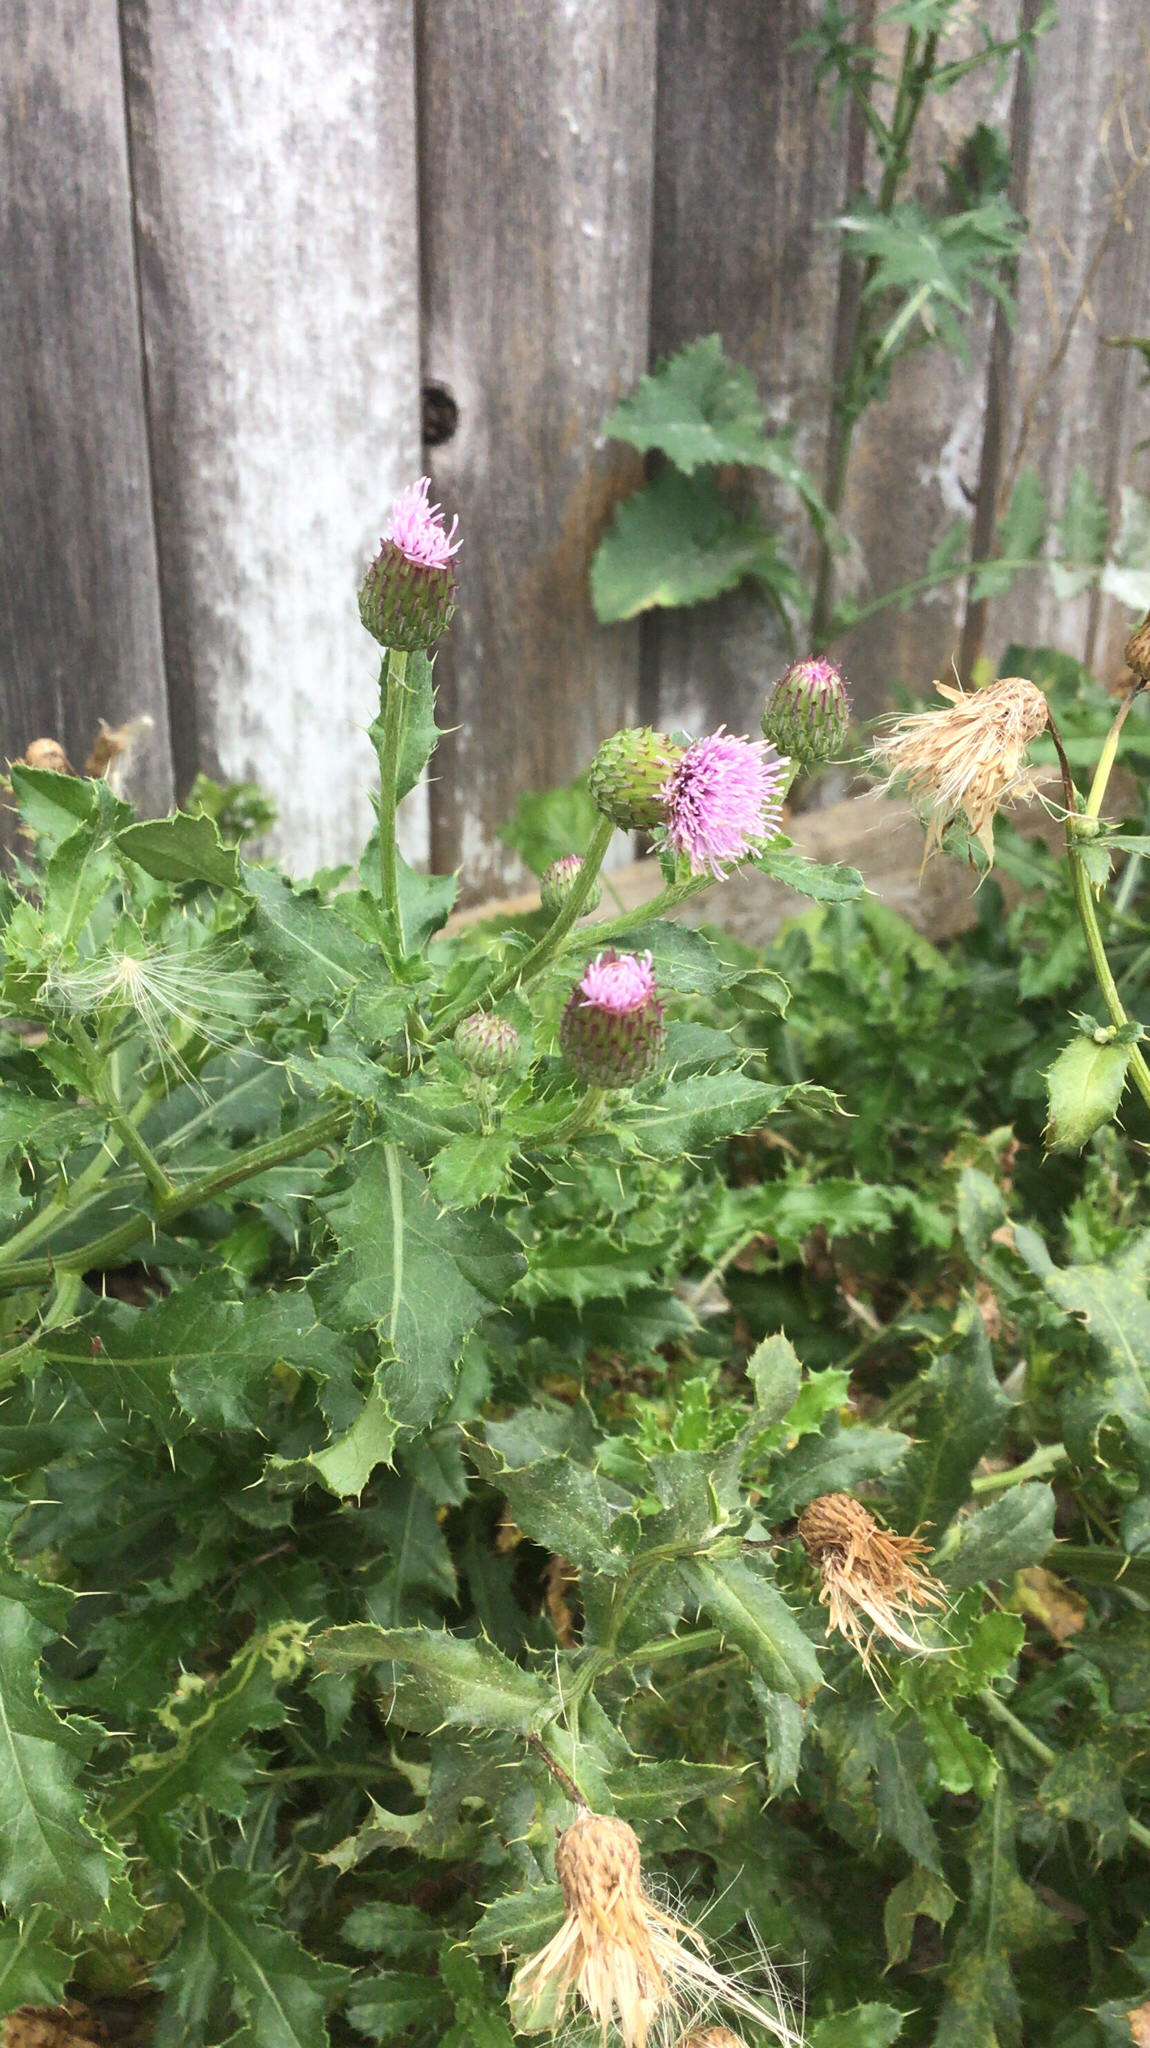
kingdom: Plantae
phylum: Tracheophyta
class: Magnoliopsida
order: Asterales
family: Asteraceae
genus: Cirsium
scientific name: Cirsium arvense
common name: Creeping thistle
